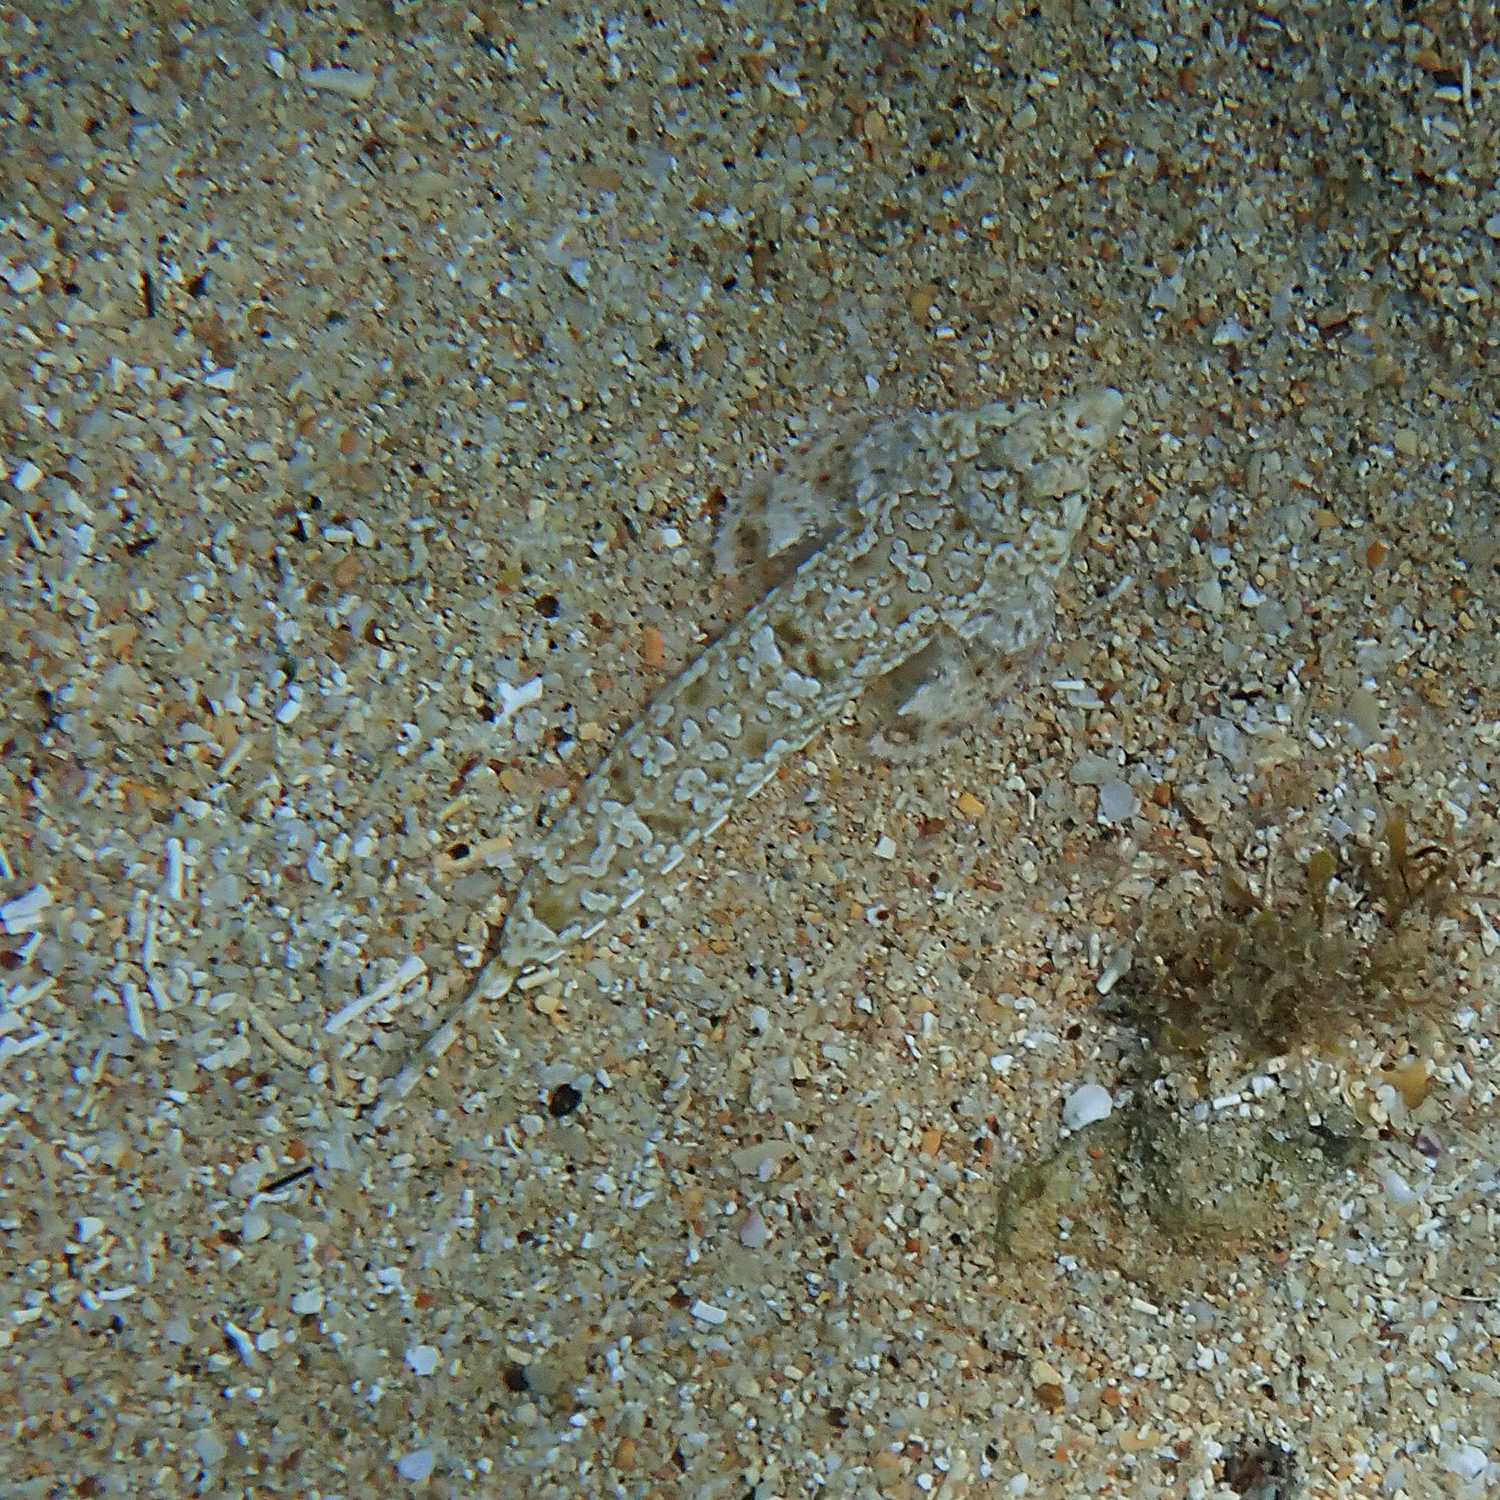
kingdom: Animalia
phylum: Chordata
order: Perciformes
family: Callionymidae
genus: Diplogrammus
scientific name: Diplogrammus goramensis
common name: Goram dragonet
